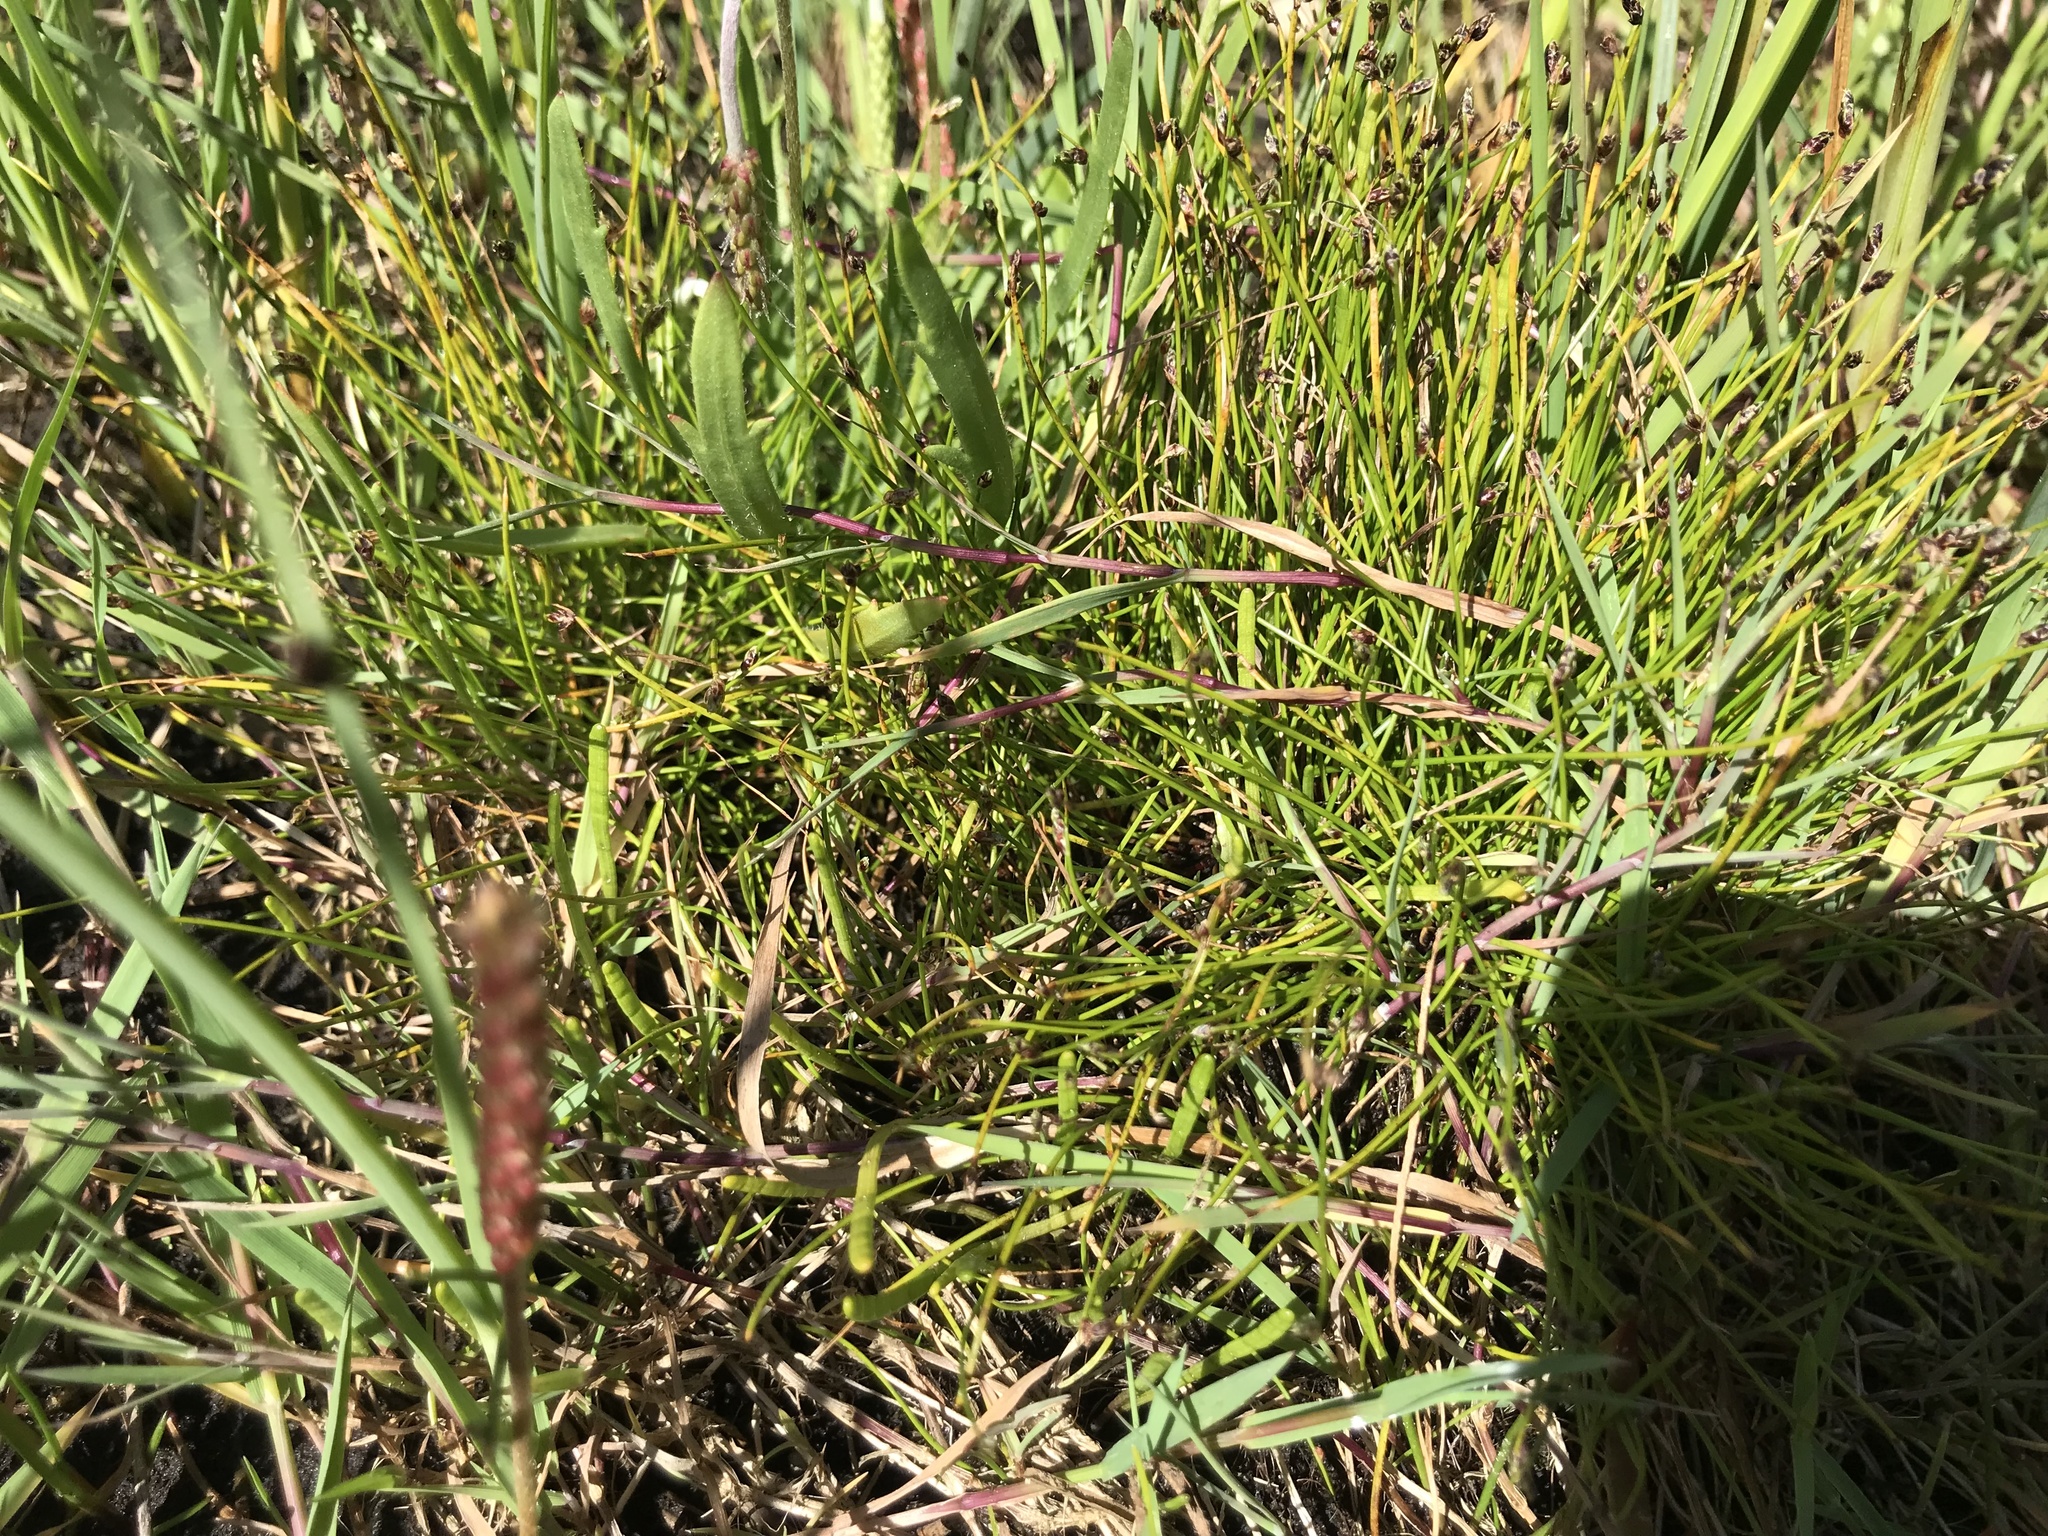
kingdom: Plantae
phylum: Tracheophyta
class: Liliopsida
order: Poales
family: Cyperaceae
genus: Isolepis
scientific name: Isolepis cernua
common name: Slender club-rush
